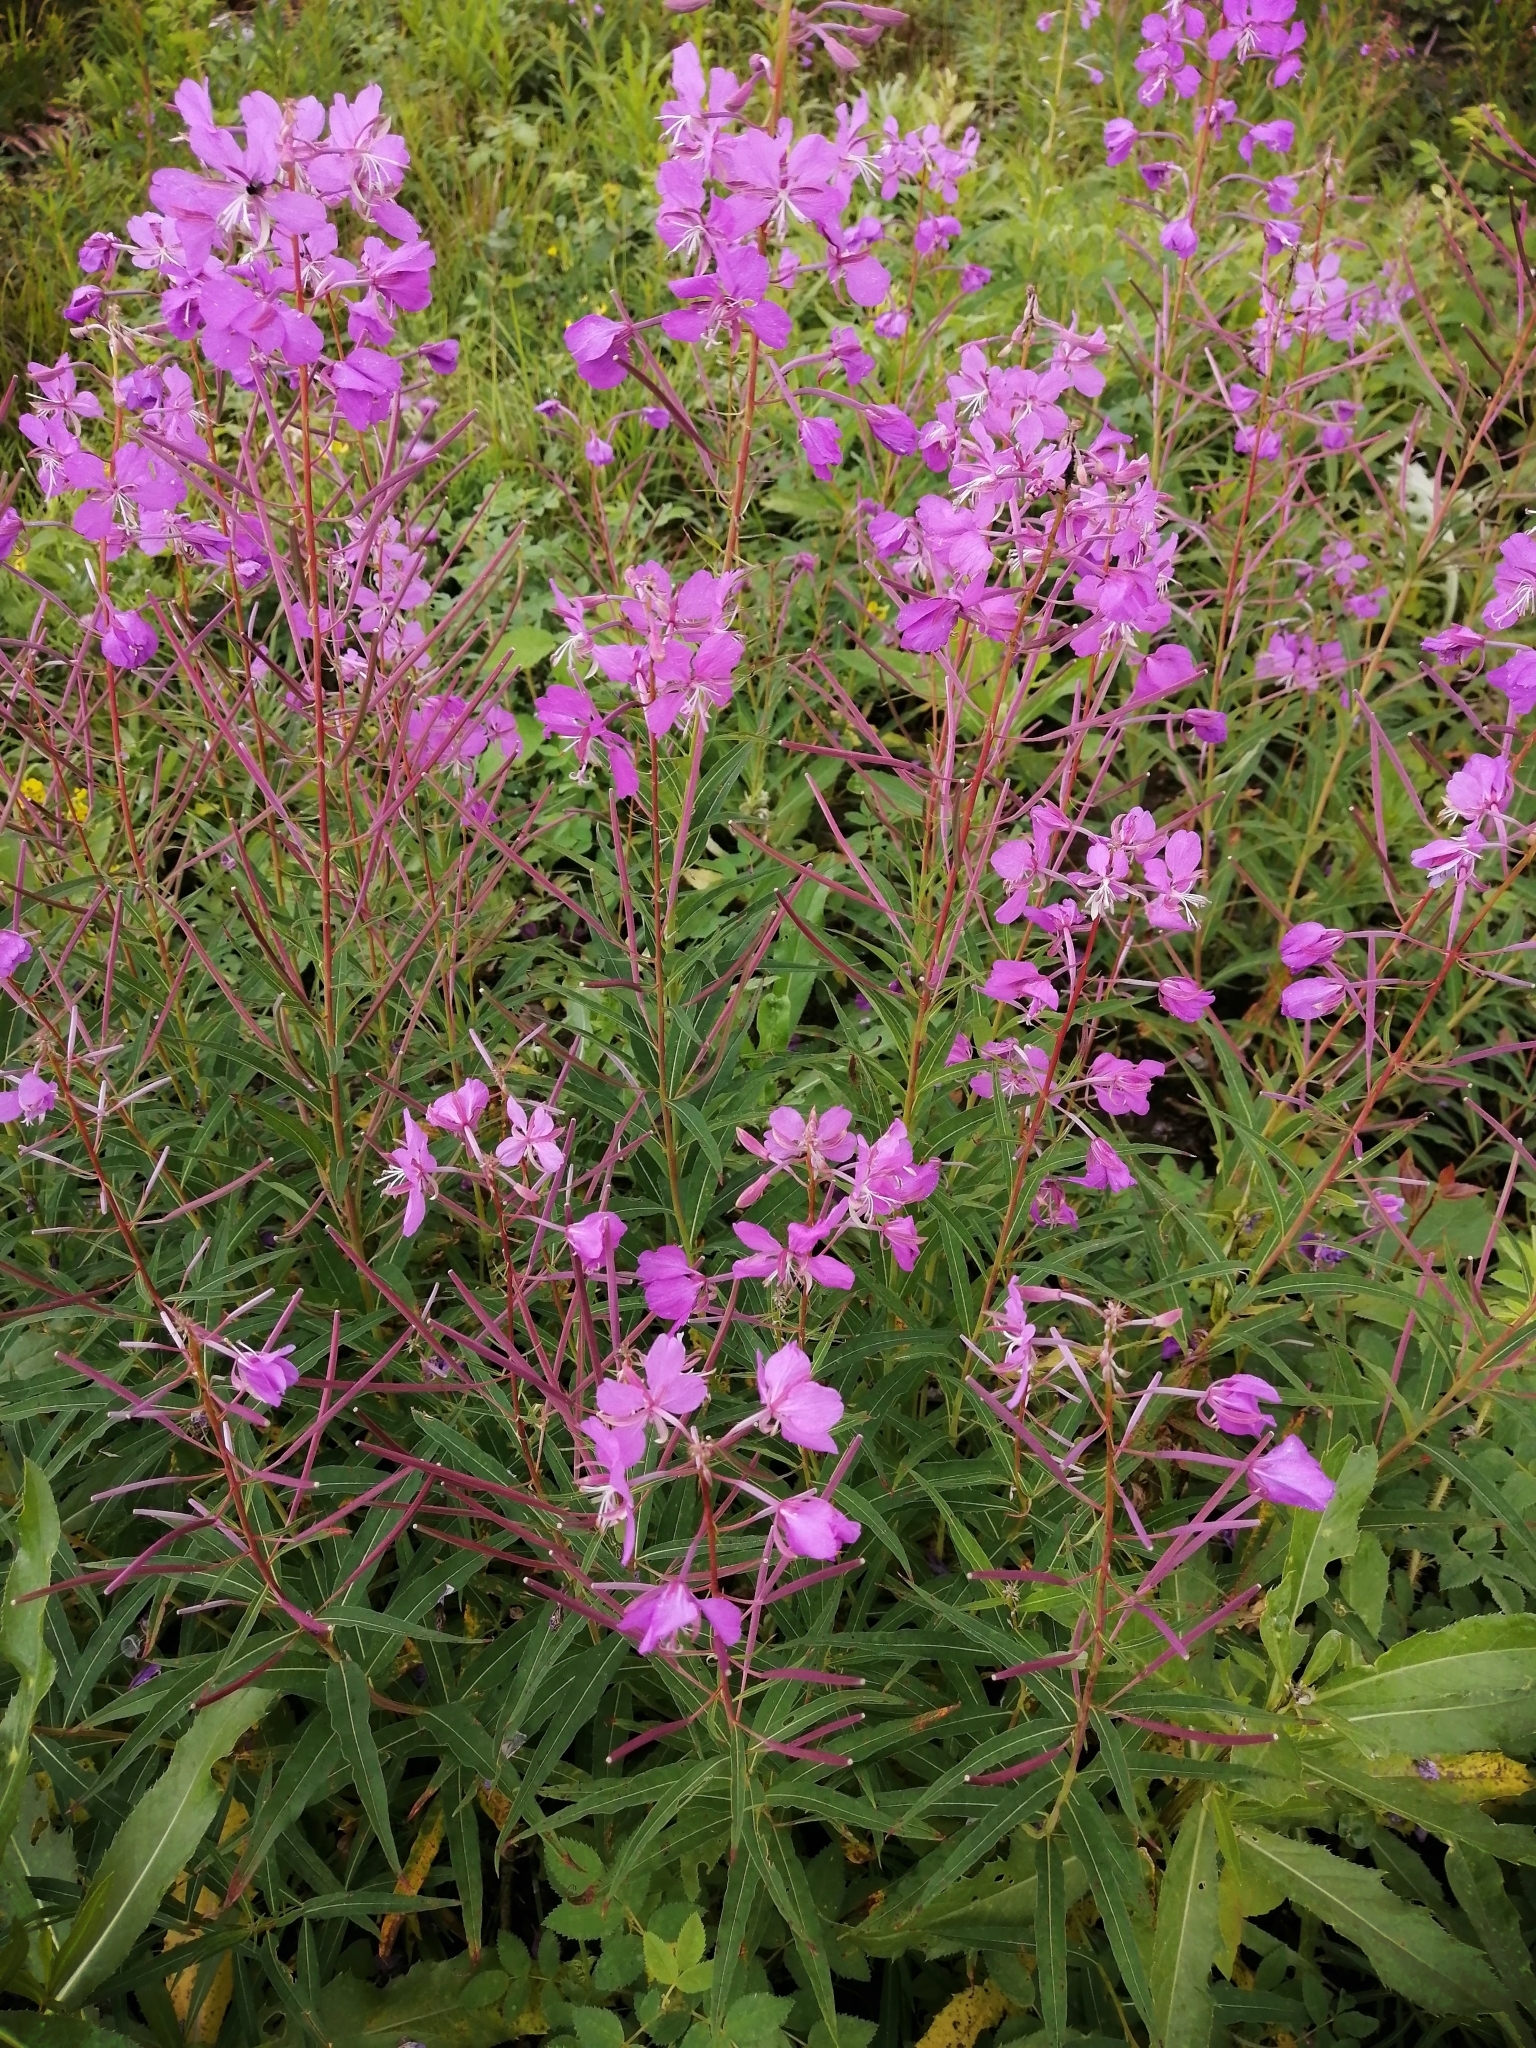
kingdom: Plantae
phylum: Tracheophyta
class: Magnoliopsida
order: Myrtales
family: Onagraceae
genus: Chamaenerion
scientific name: Chamaenerion angustifolium
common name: Fireweed
